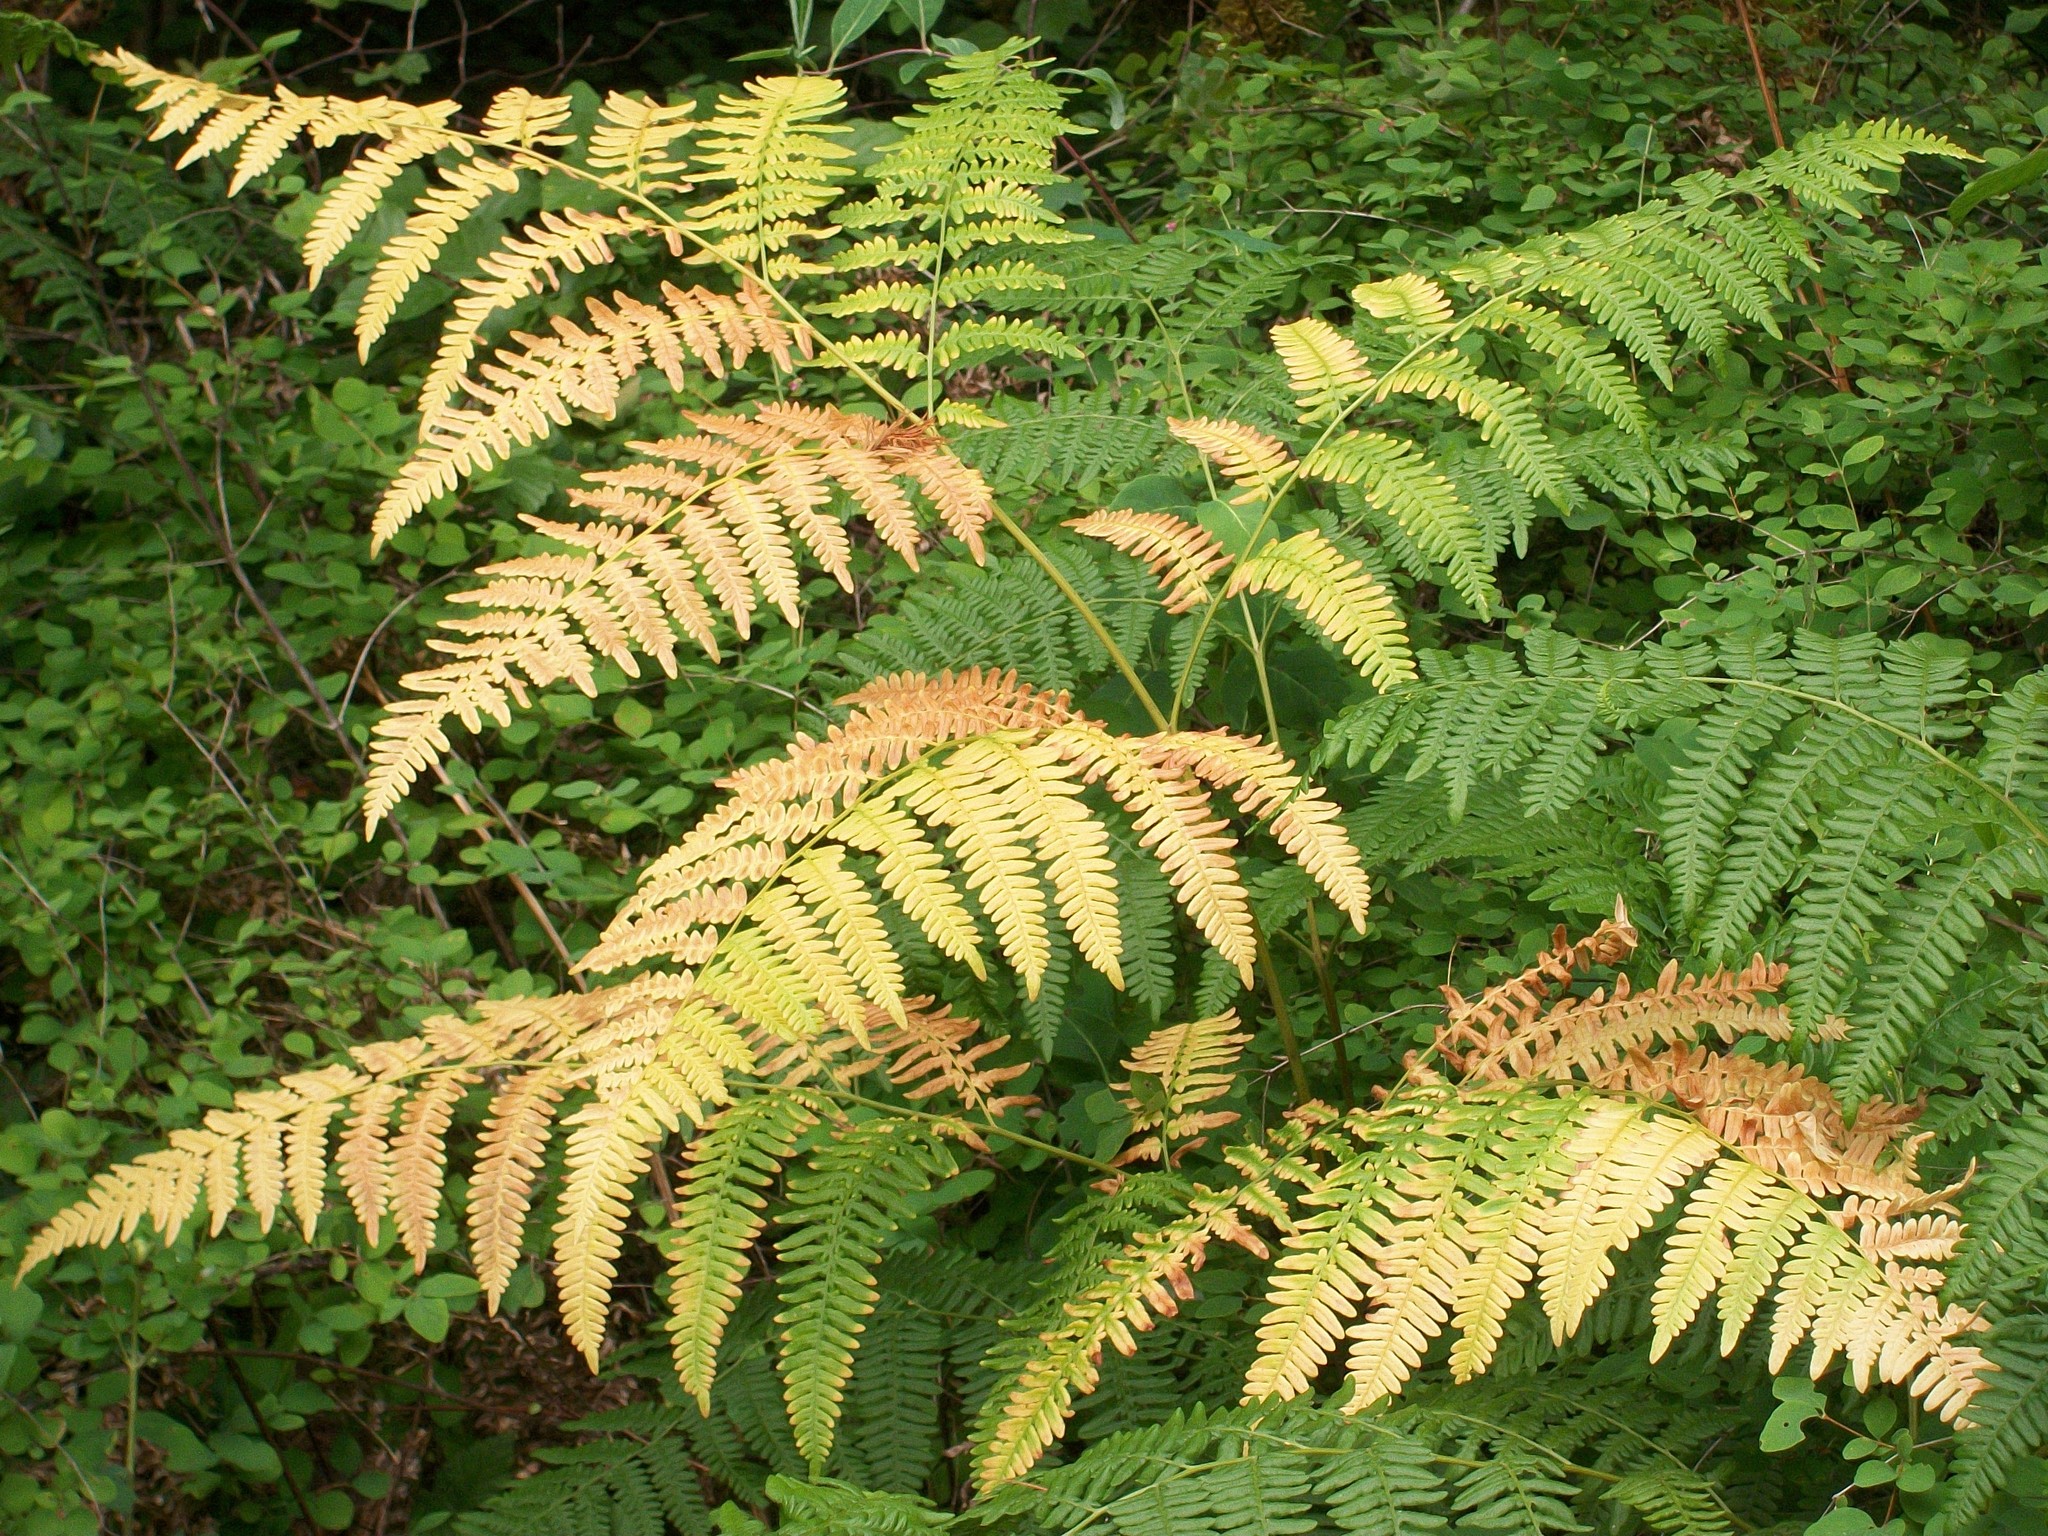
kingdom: Plantae
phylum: Tracheophyta
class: Polypodiopsida
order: Polypodiales
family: Dennstaedtiaceae
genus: Pteridium
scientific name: Pteridium aquilinum
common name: Bracken
